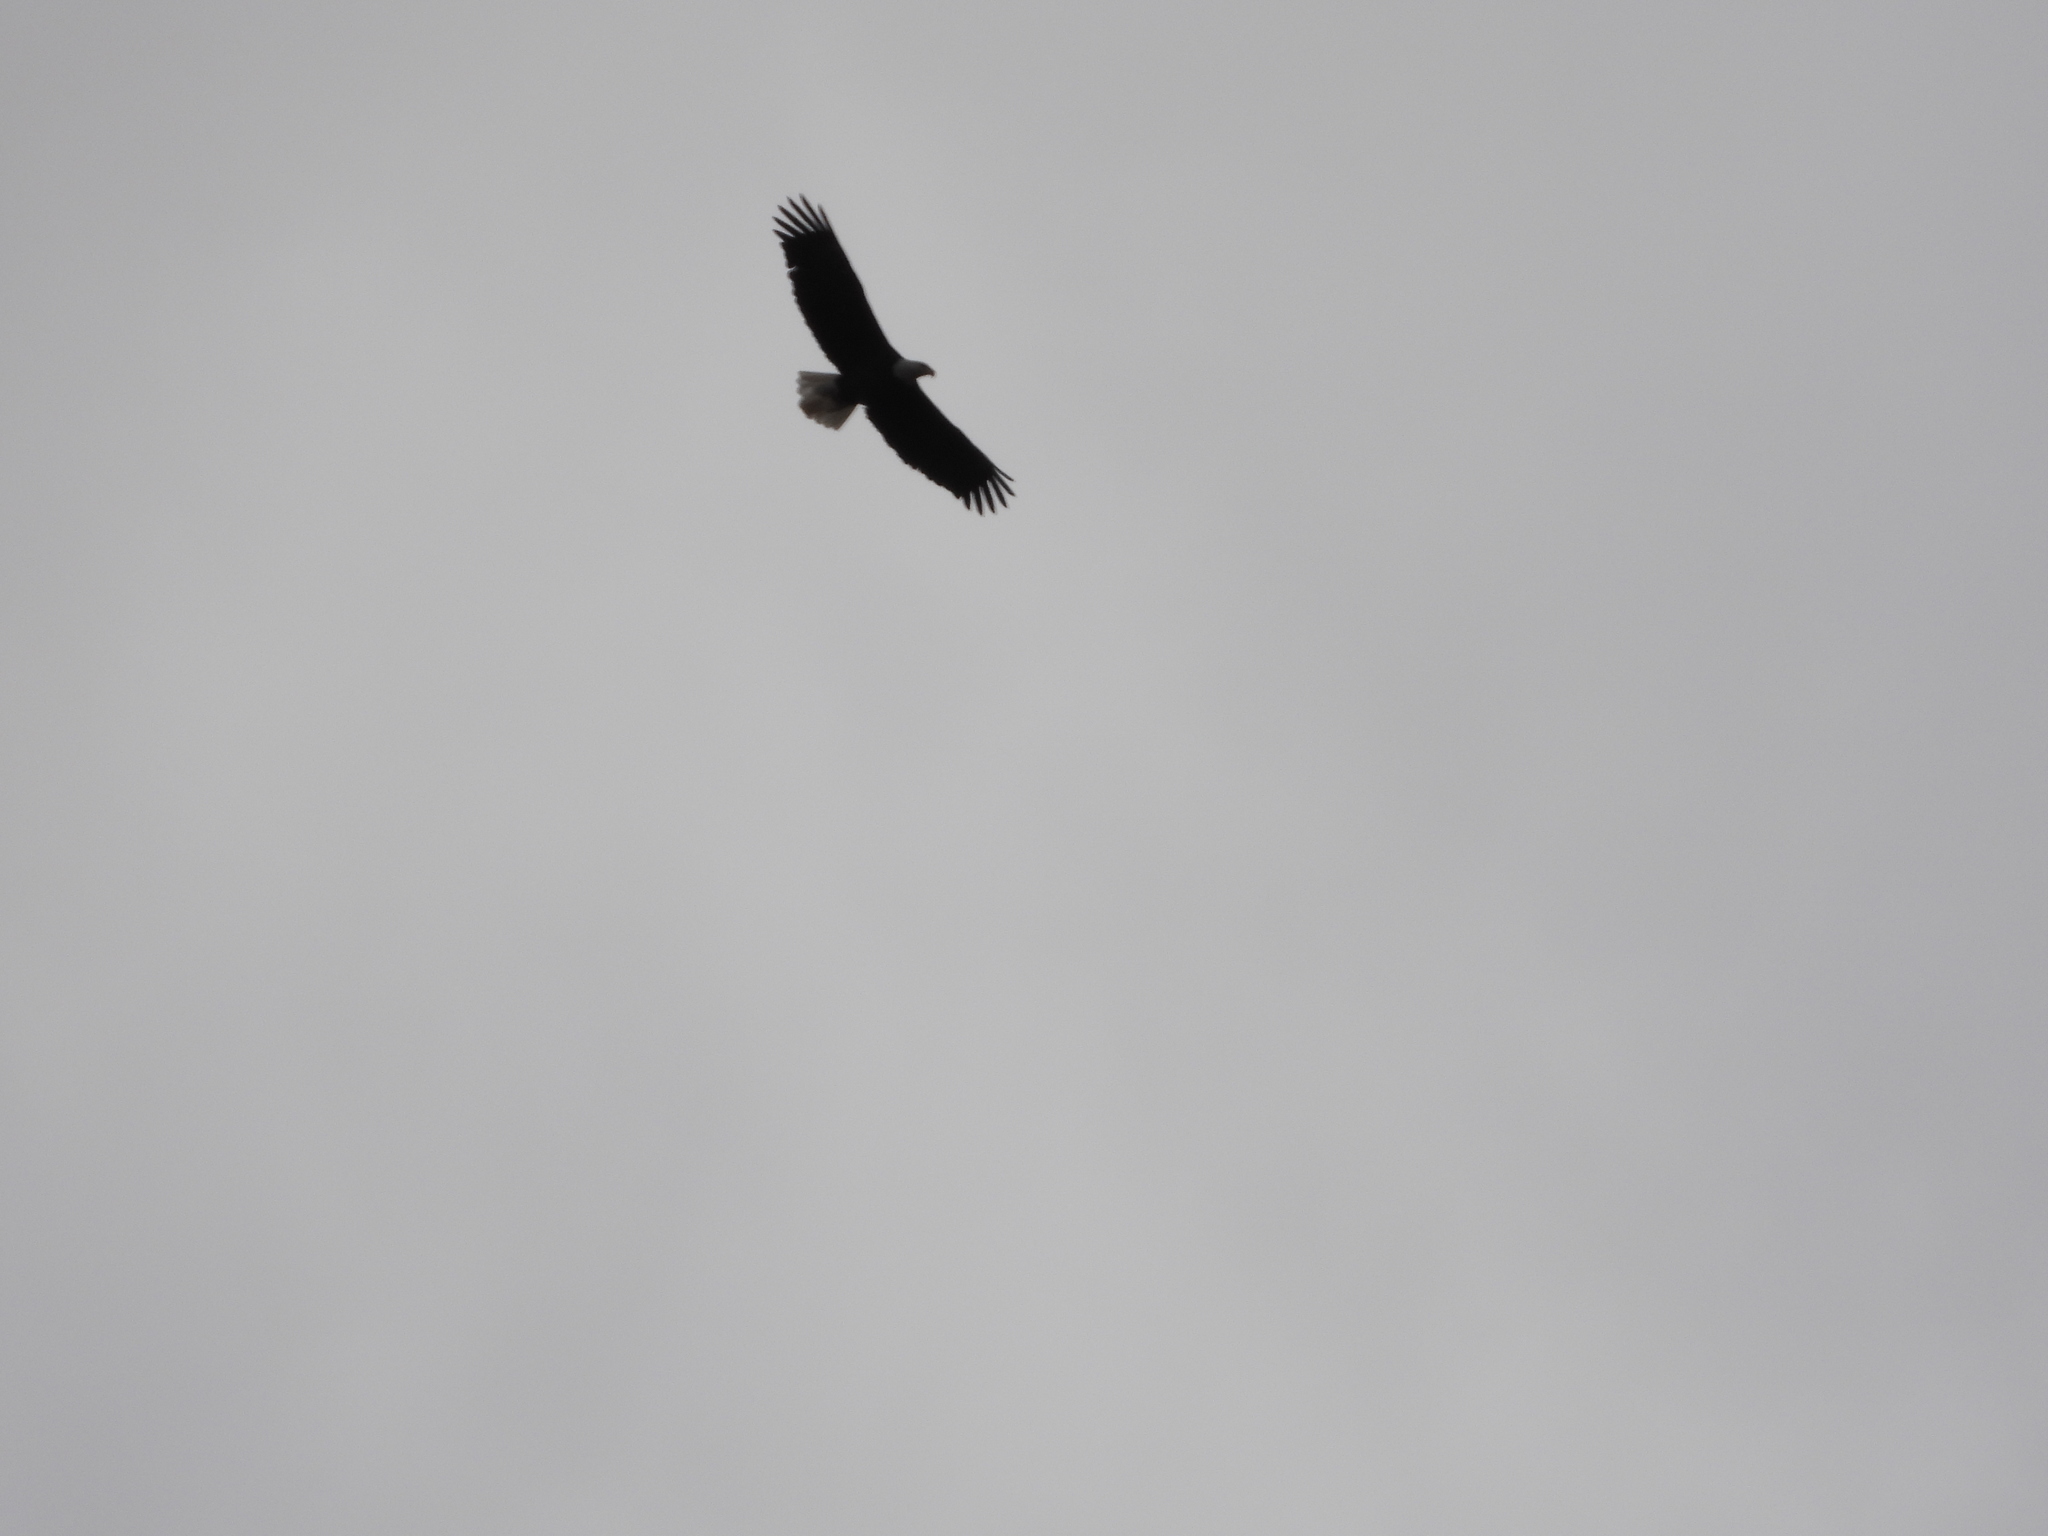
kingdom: Animalia
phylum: Chordata
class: Aves
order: Accipitriformes
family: Accipitridae
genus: Haliaeetus
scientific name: Haliaeetus leucocephalus
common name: Bald eagle
